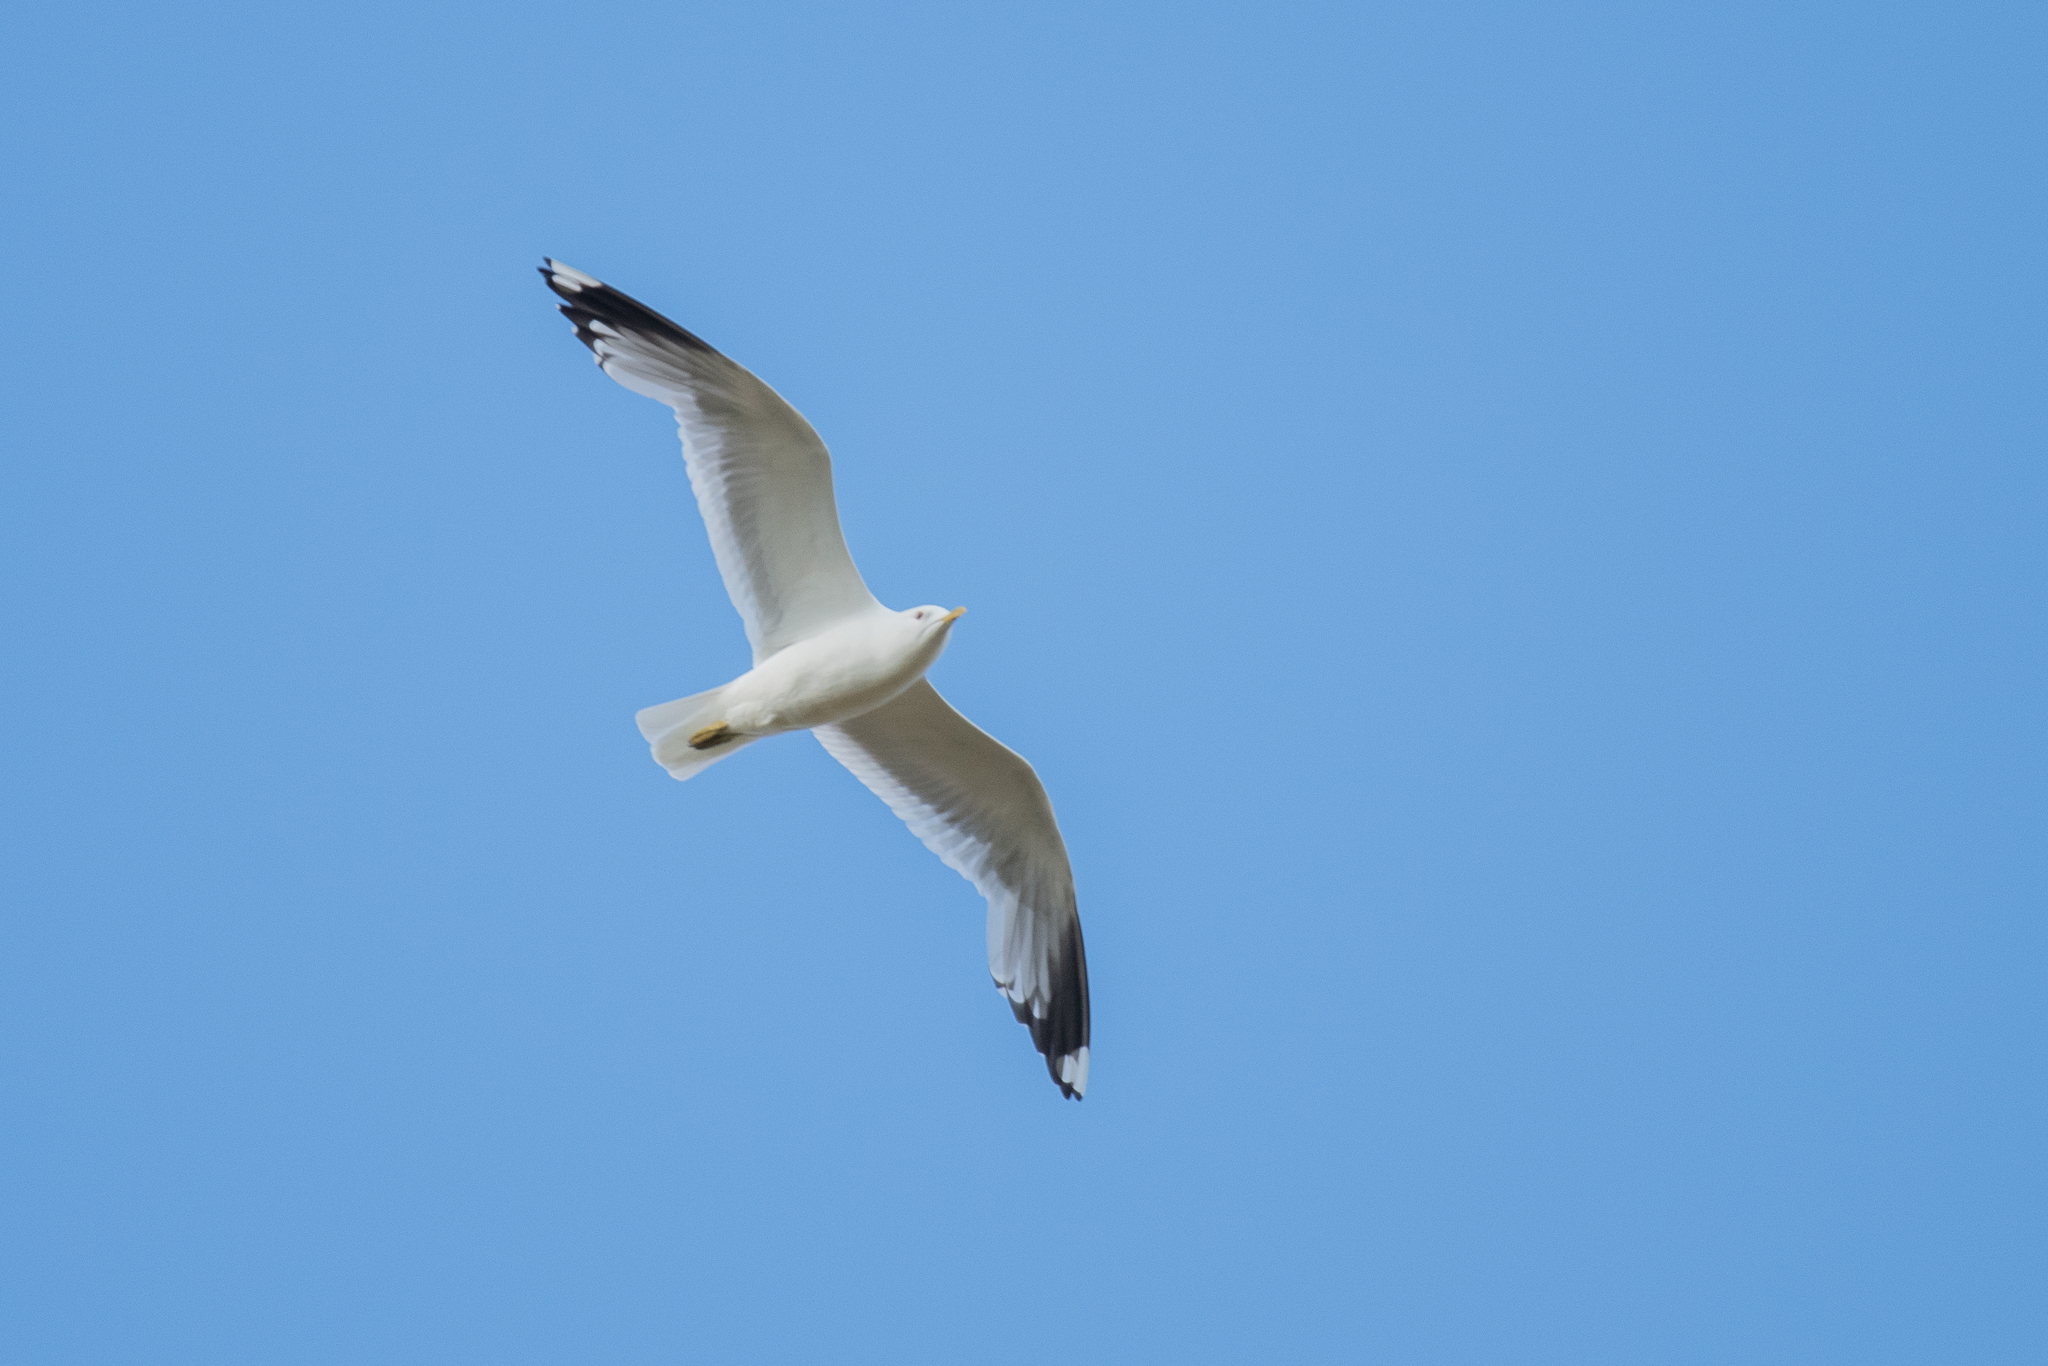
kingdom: Animalia
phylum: Chordata
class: Aves
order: Charadriiformes
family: Laridae
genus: Larus
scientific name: Larus canus
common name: Mew gull
